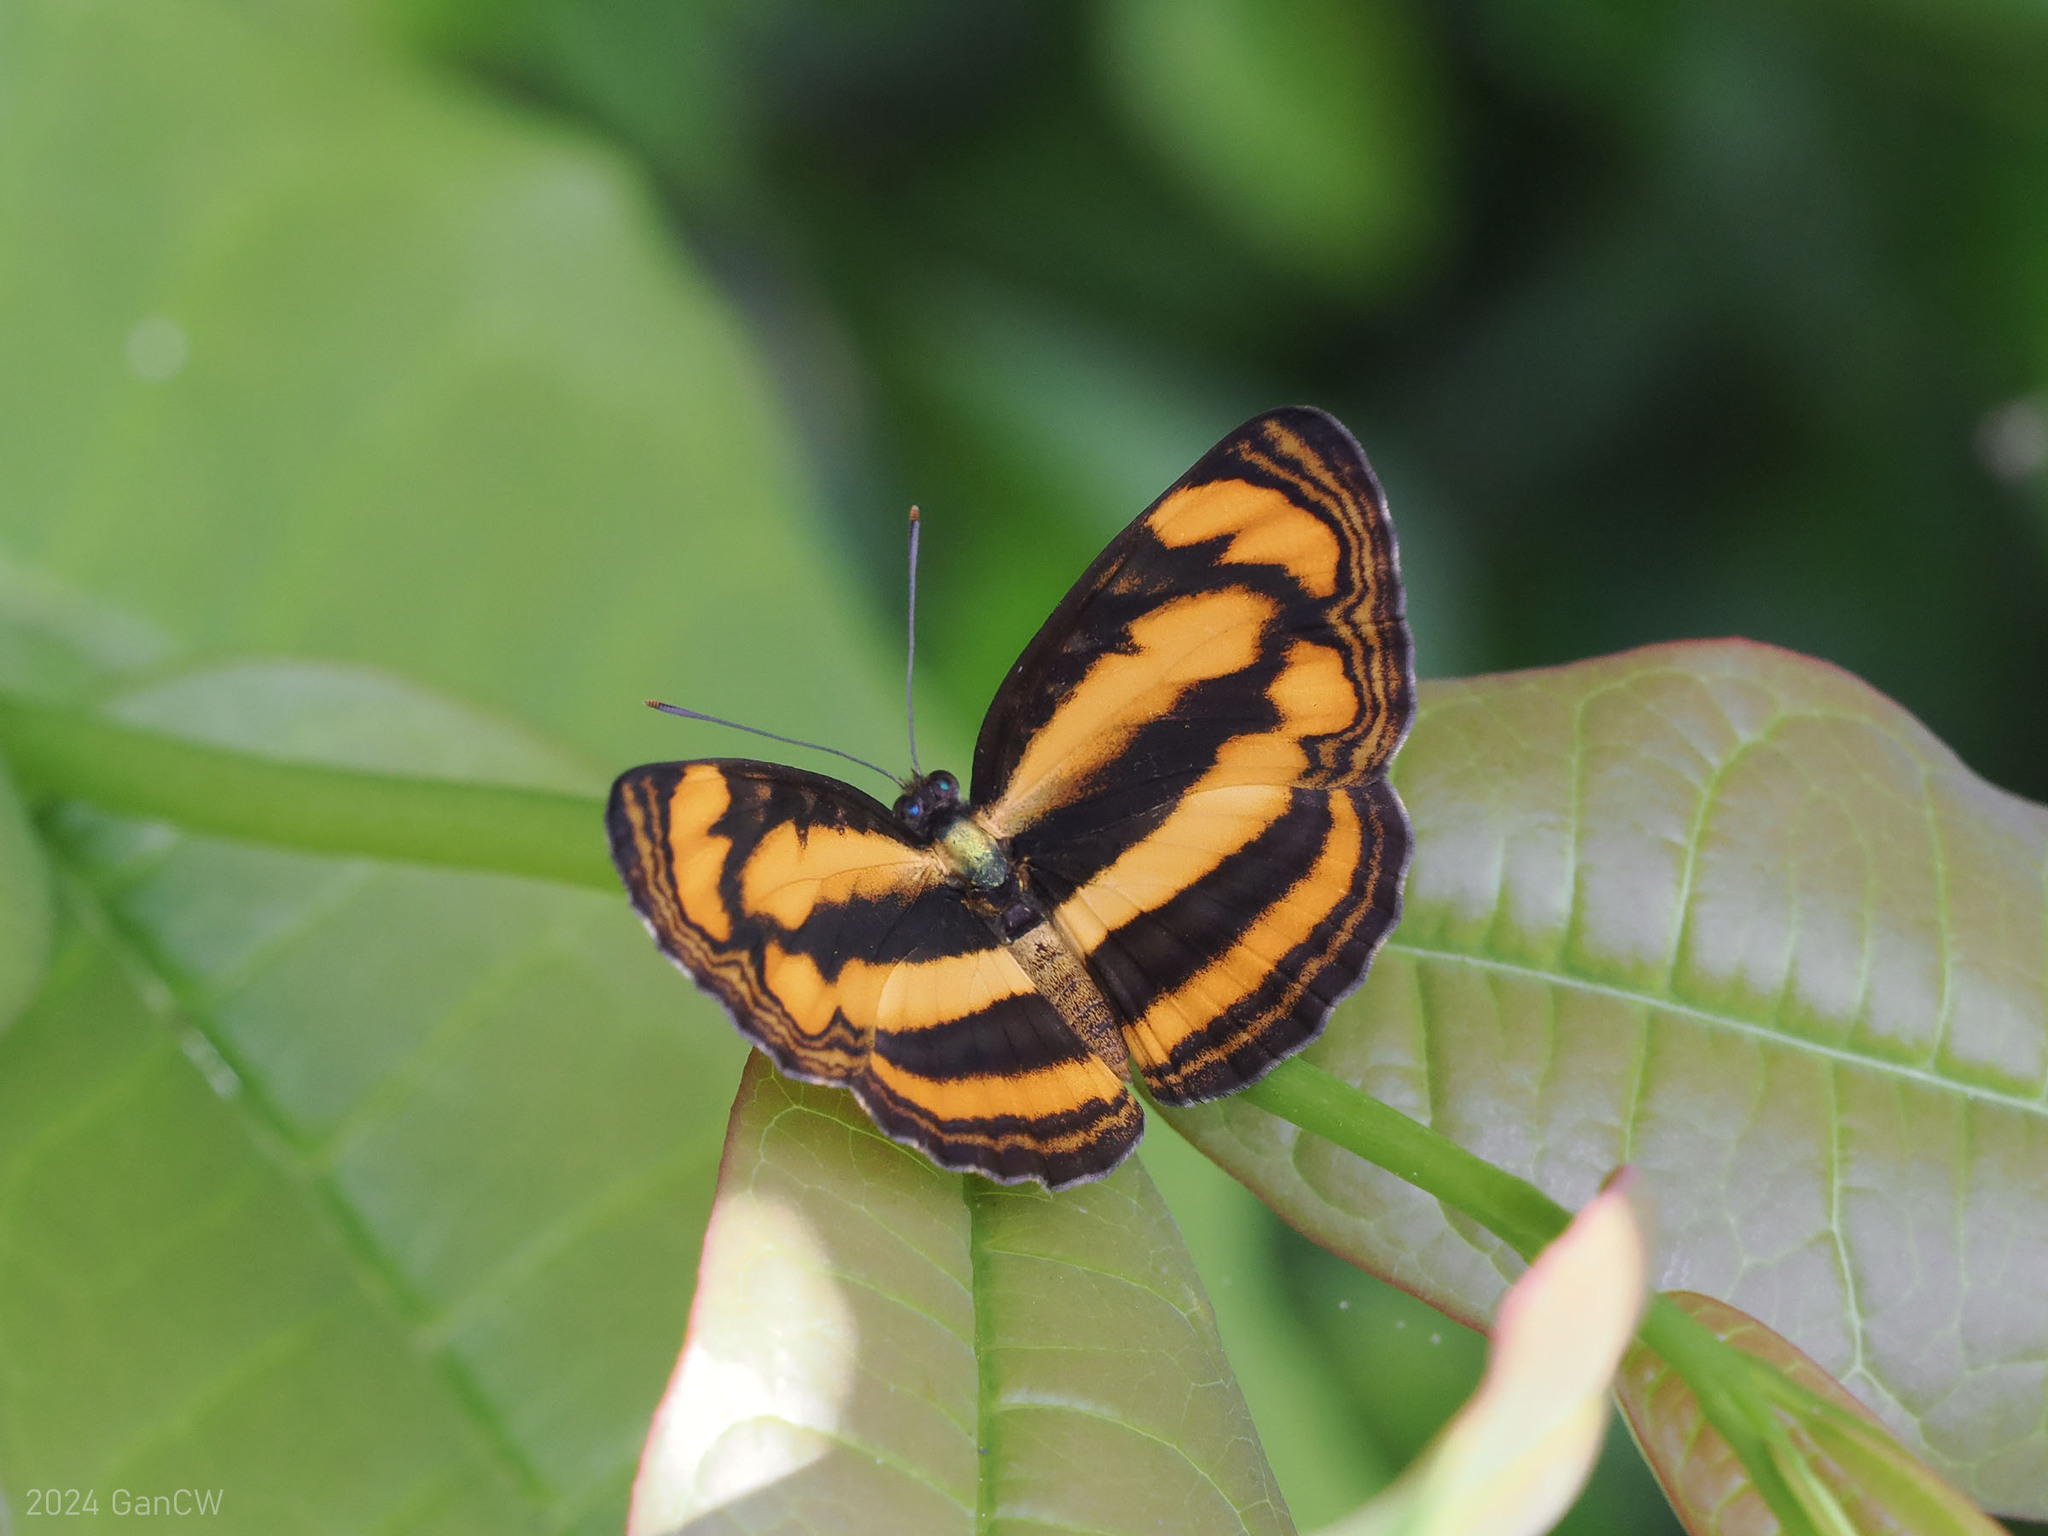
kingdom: Animalia
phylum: Arthropoda
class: Insecta
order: Lepidoptera
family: Nymphalidae
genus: Pantoporia
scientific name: Pantoporia paraka
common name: Perak lascar
